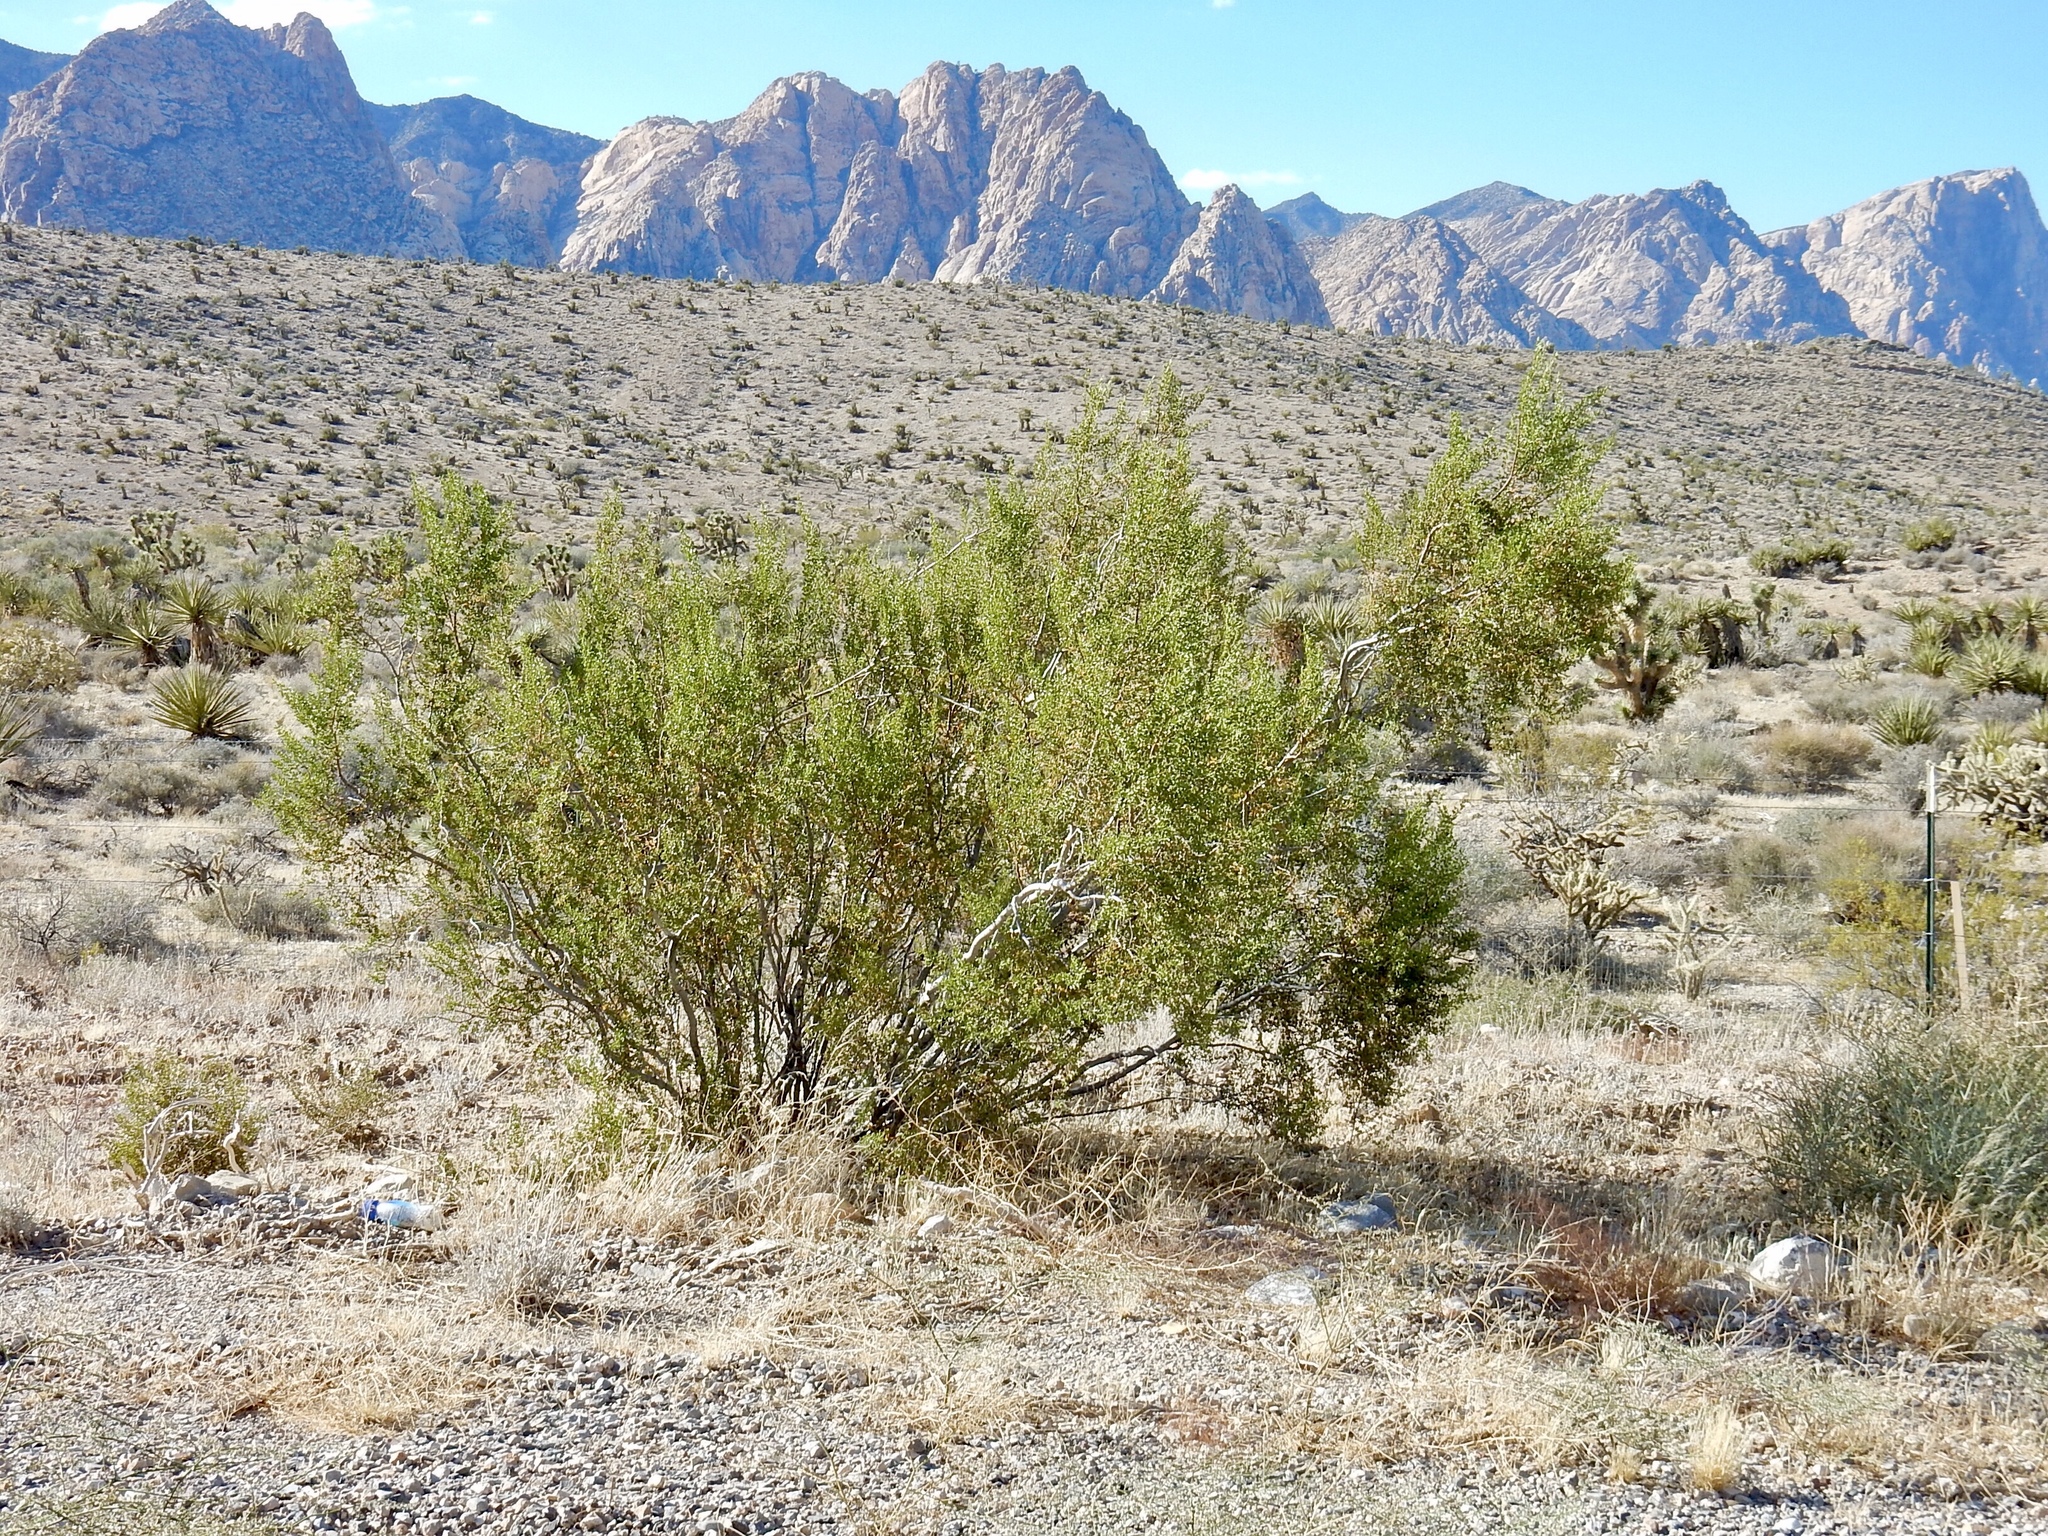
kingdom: Plantae
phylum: Tracheophyta
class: Magnoliopsida
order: Zygophyllales
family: Zygophyllaceae
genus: Larrea
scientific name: Larrea tridentata
